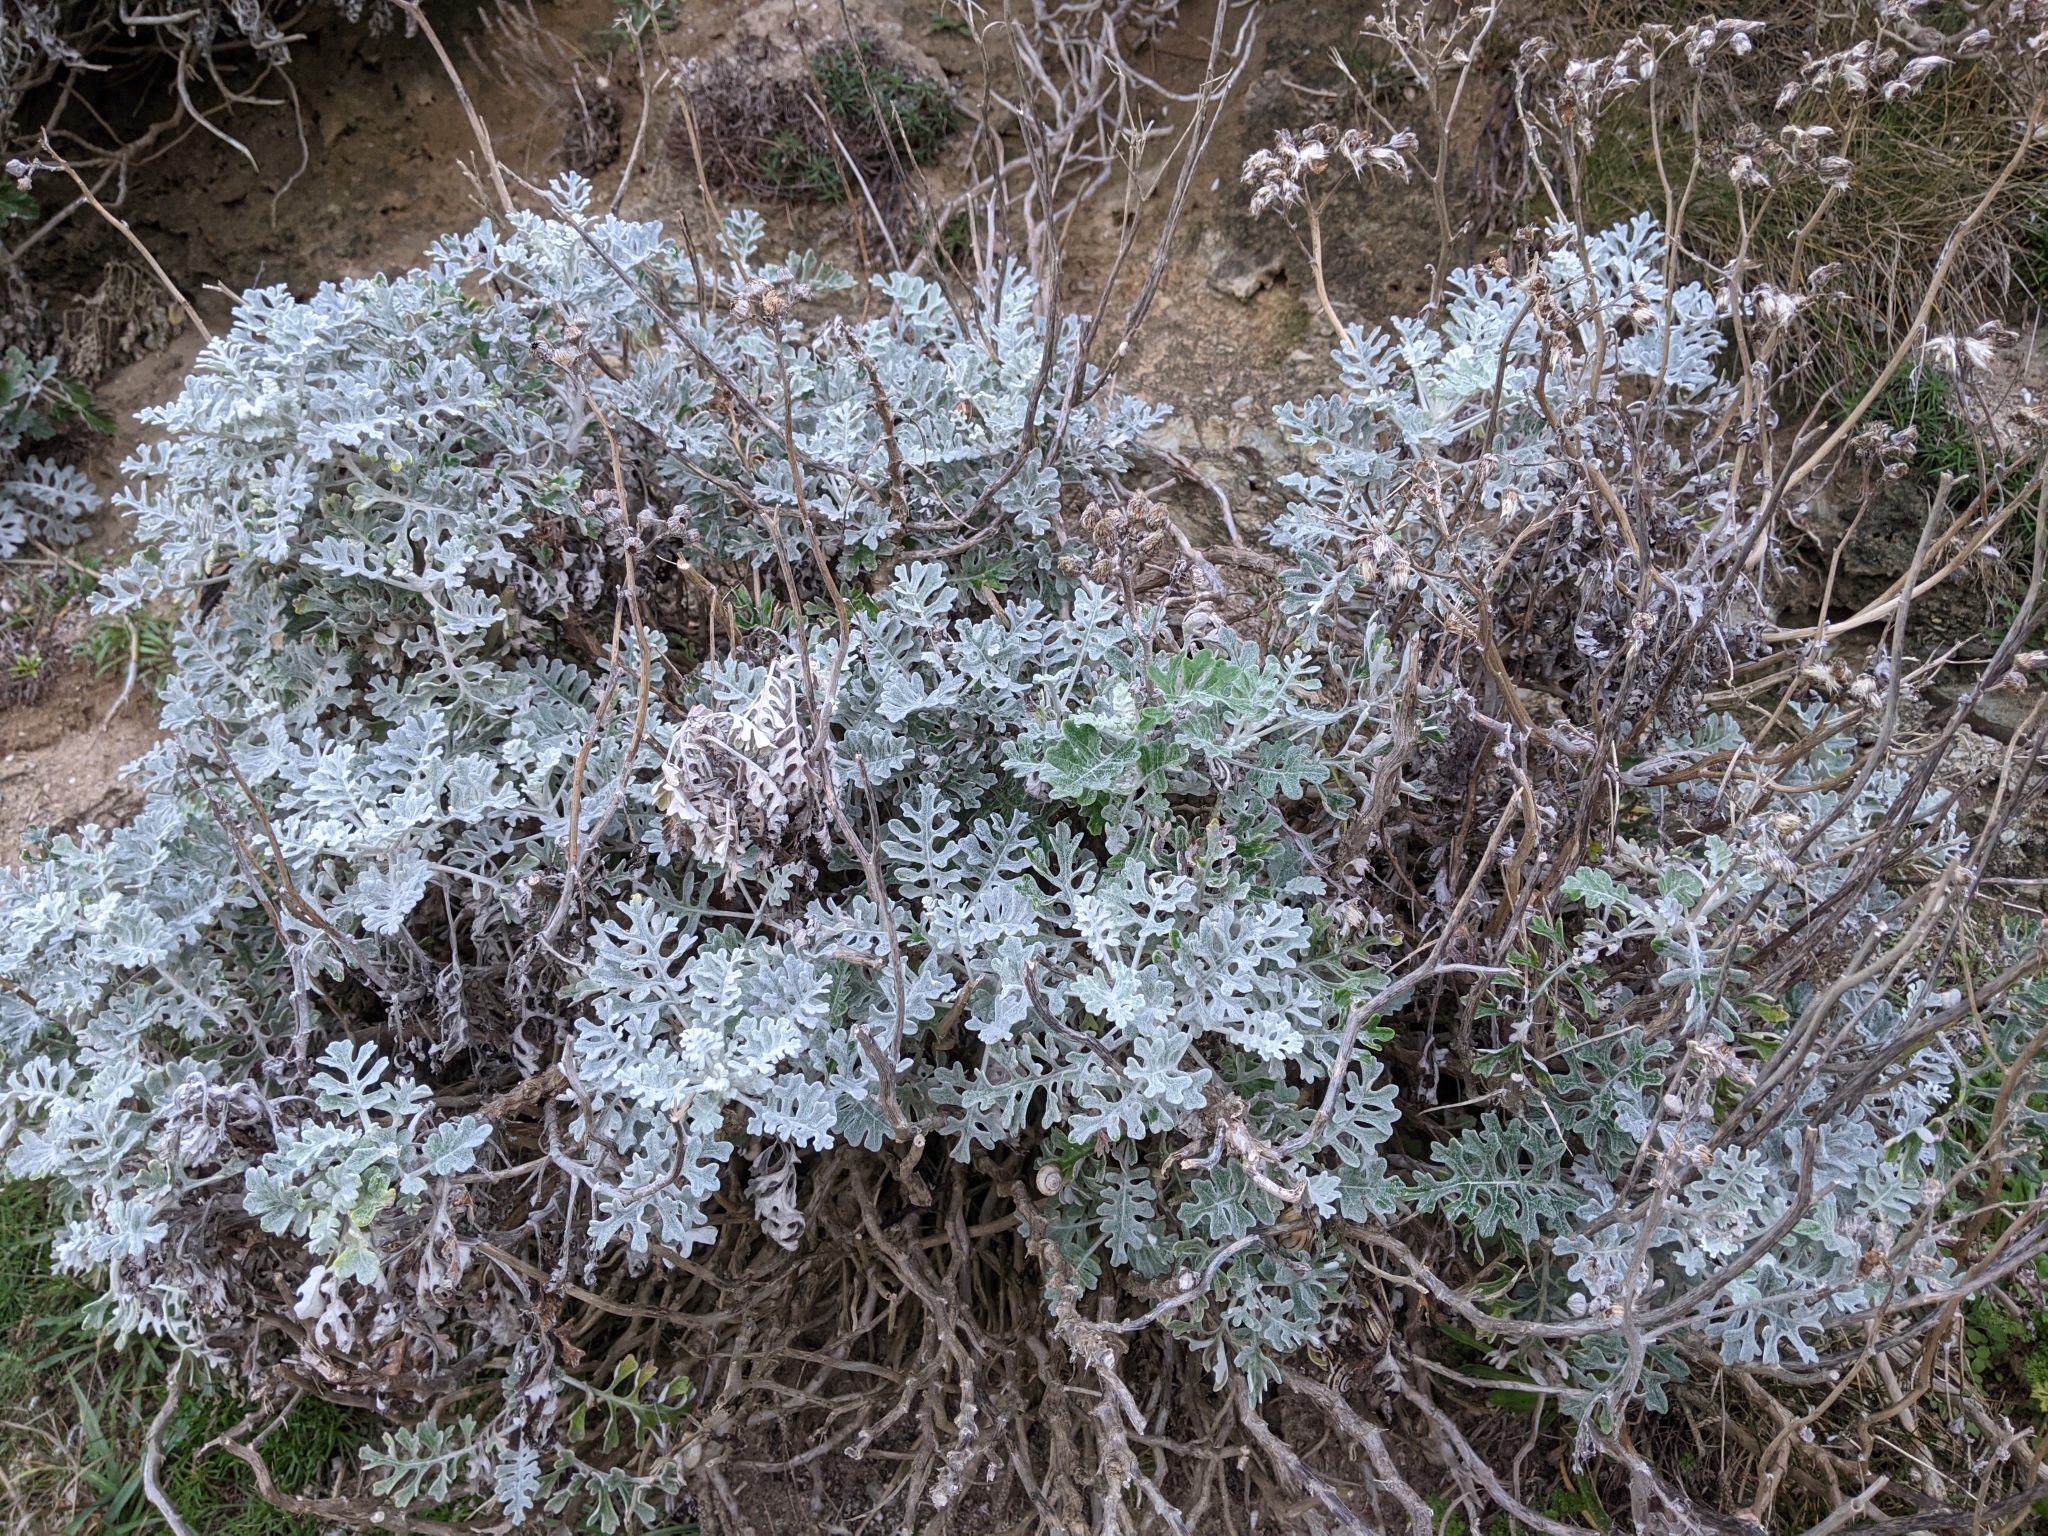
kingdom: Plantae
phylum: Tracheophyta
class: Magnoliopsida
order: Asterales
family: Asteraceae
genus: Jacobaea
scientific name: Jacobaea maritima
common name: Silver ragwort
